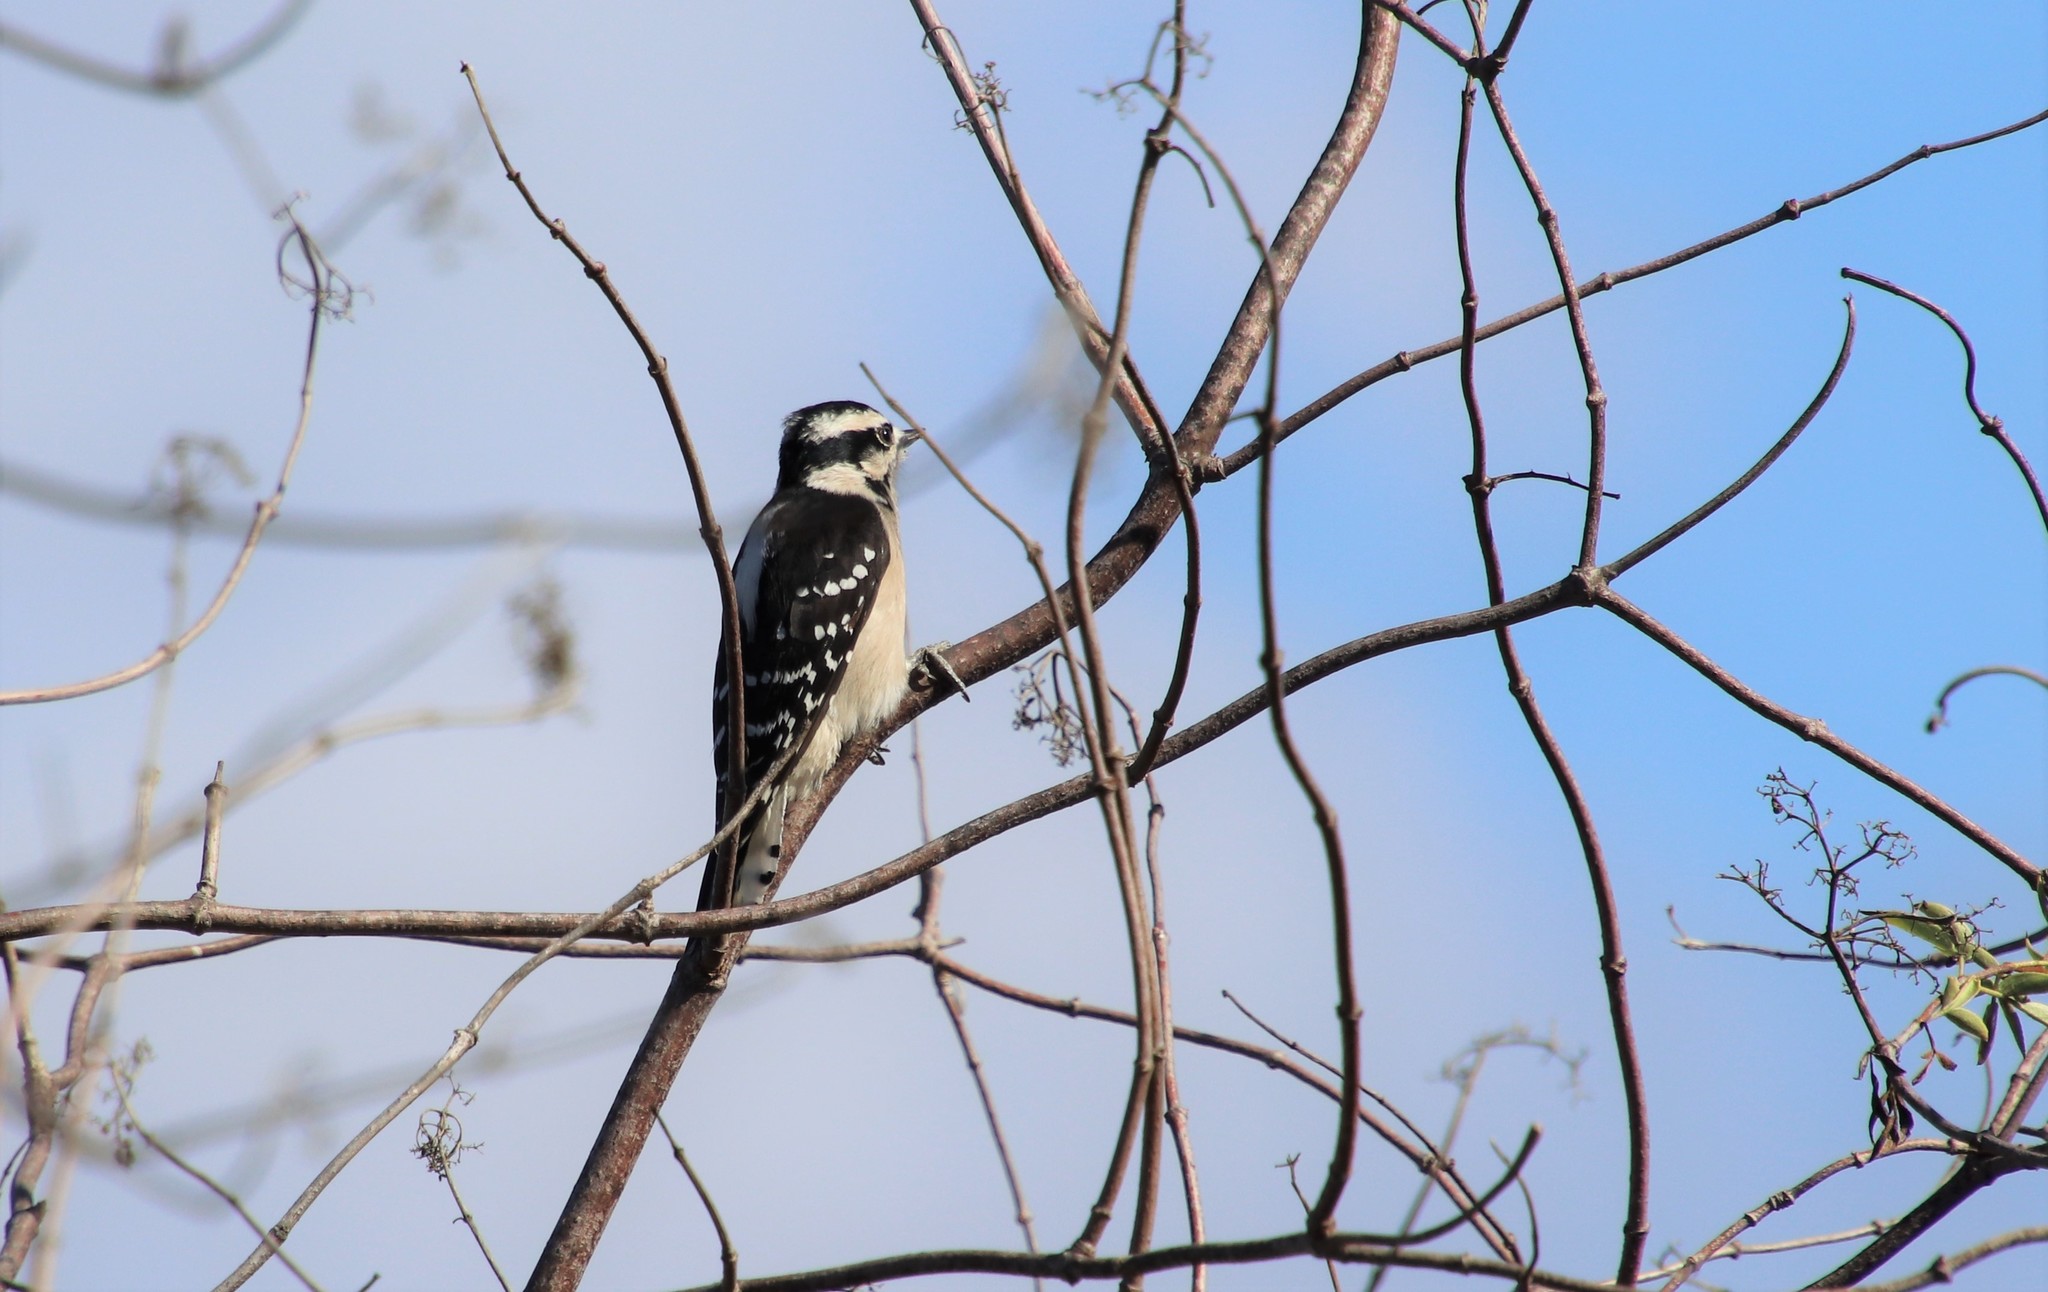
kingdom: Animalia
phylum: Chordata
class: Aves
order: Piciformes
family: Picidae
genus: Dryobates
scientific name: Dryobates pubescens
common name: Downy woodpecker
